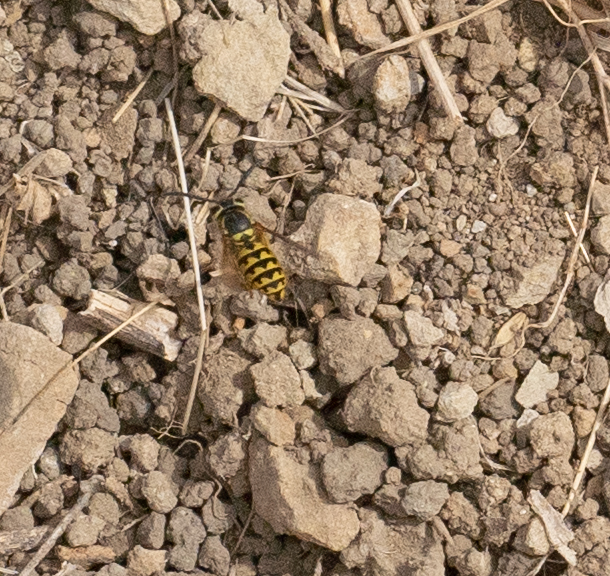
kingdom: Animalia
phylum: Arthropoda
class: Insecta
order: Hymenoptera
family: Vespidae
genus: Vespula
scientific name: Vespula pensylvanica
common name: Western yellowjacket
